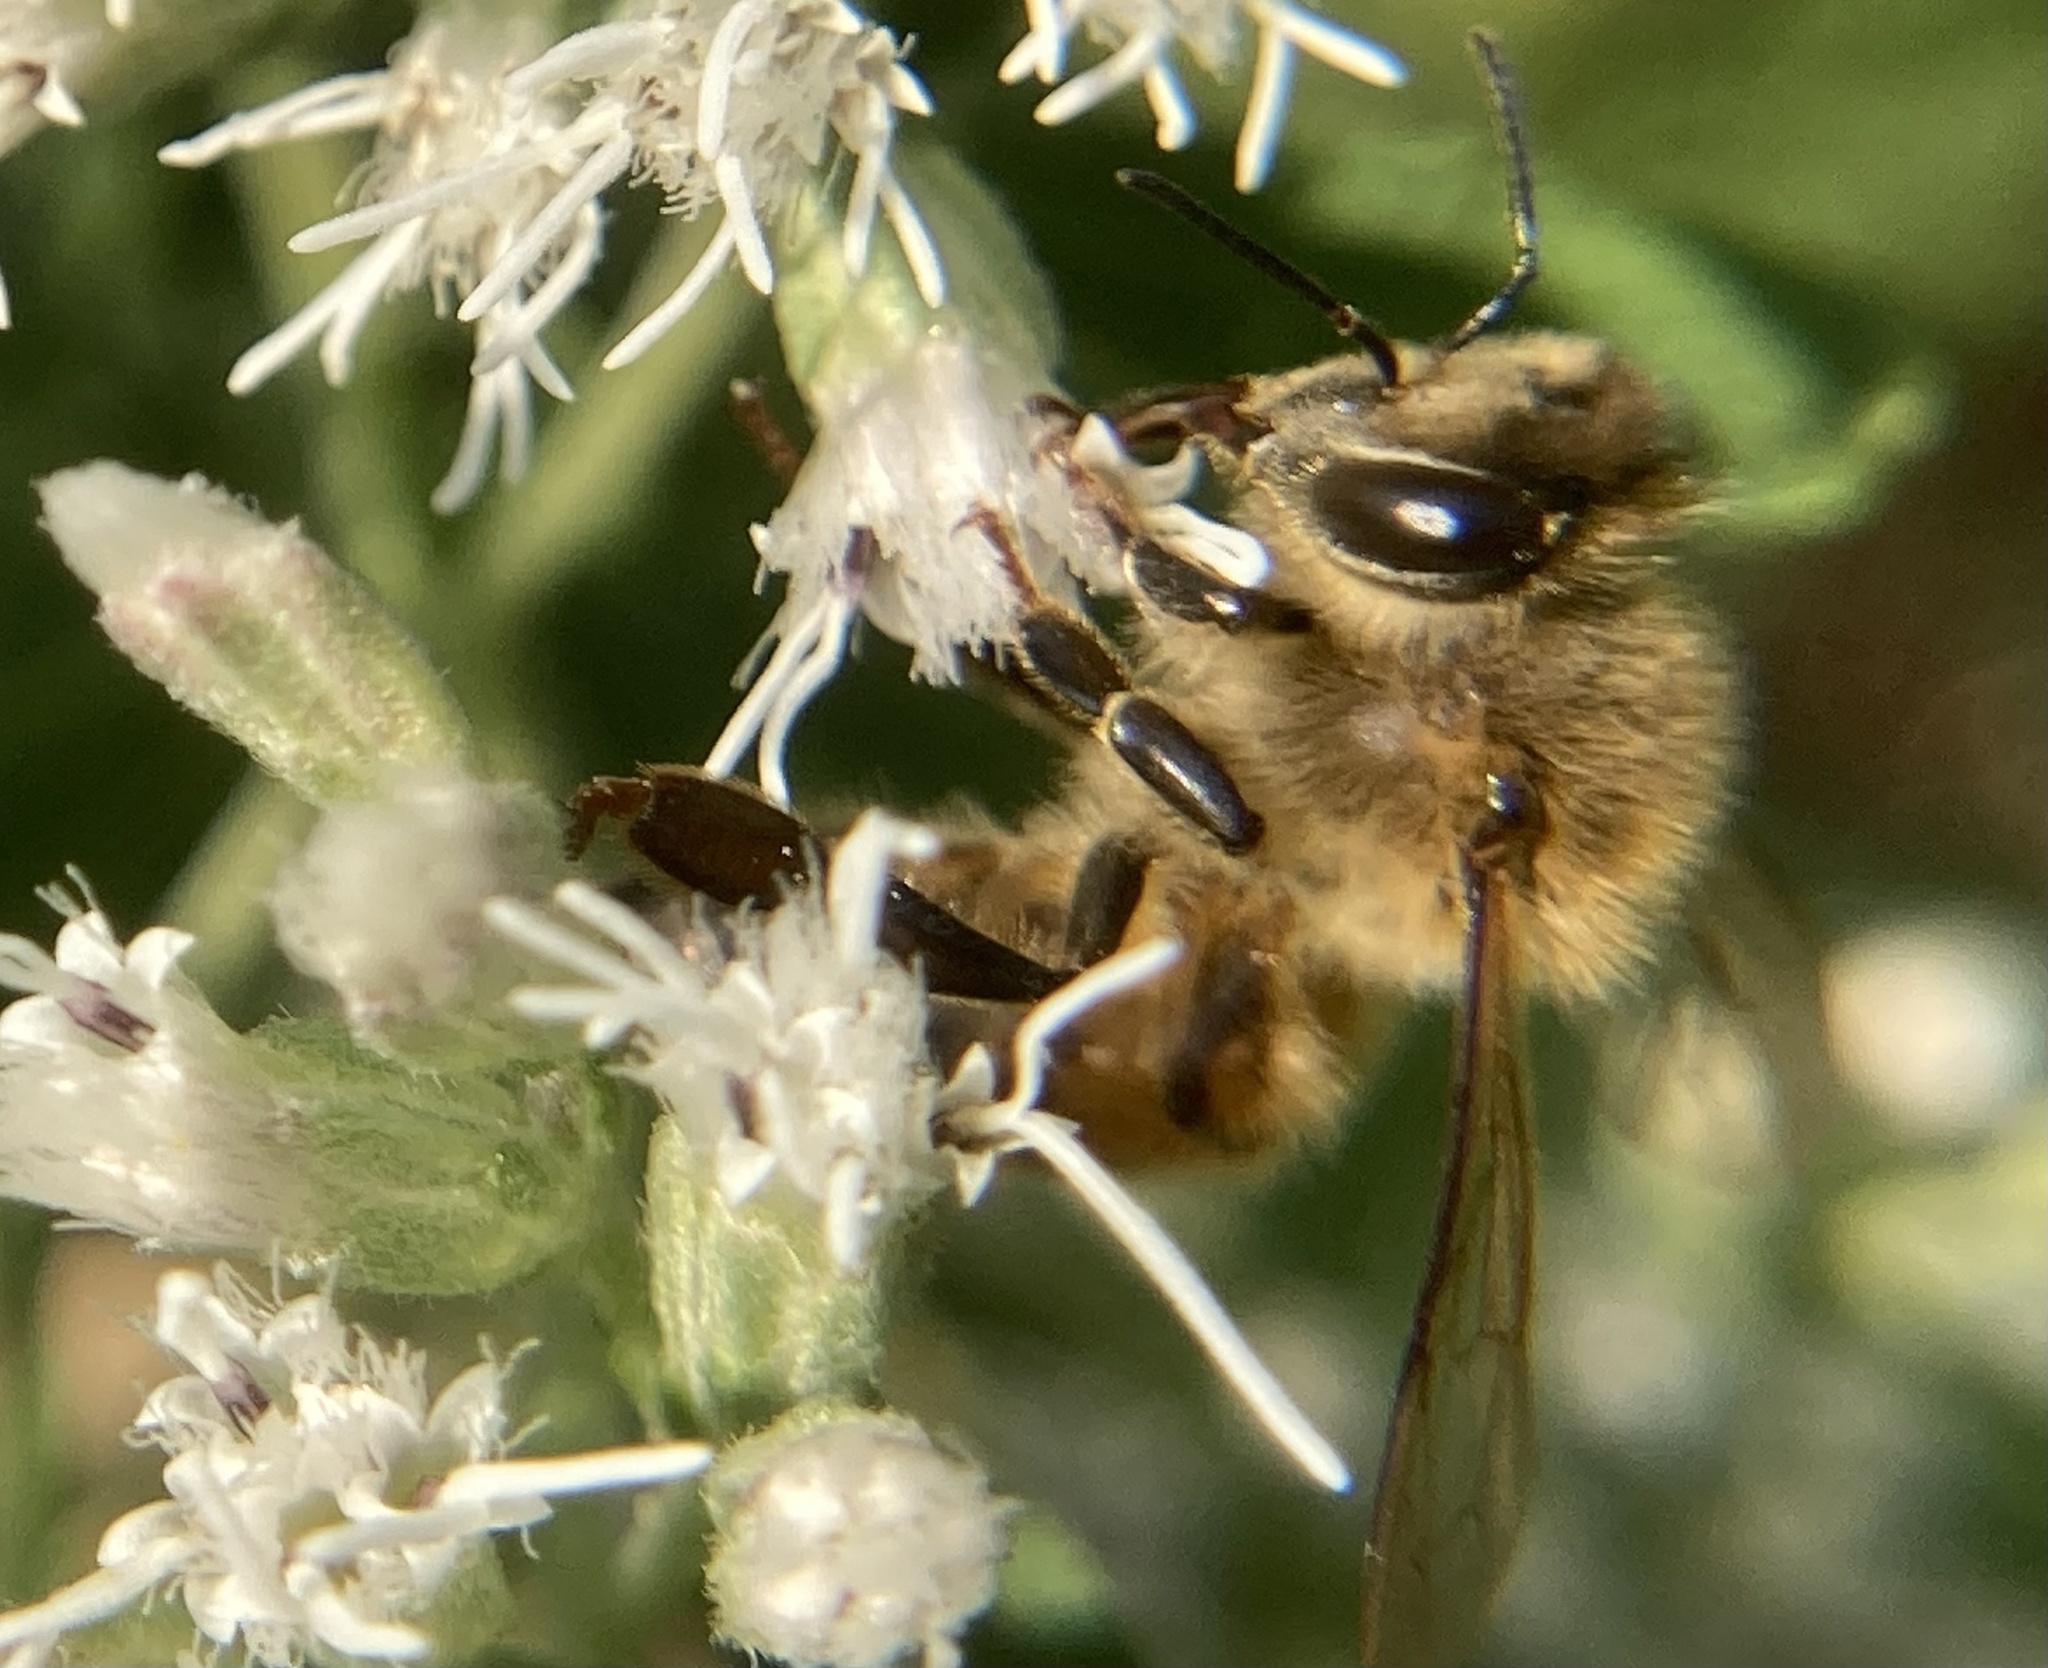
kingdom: Animalia
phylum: Arthropoda
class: Insecta
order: Hymenoptera
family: Apidae
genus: Apis
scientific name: Apis mellifera
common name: Honey bee
